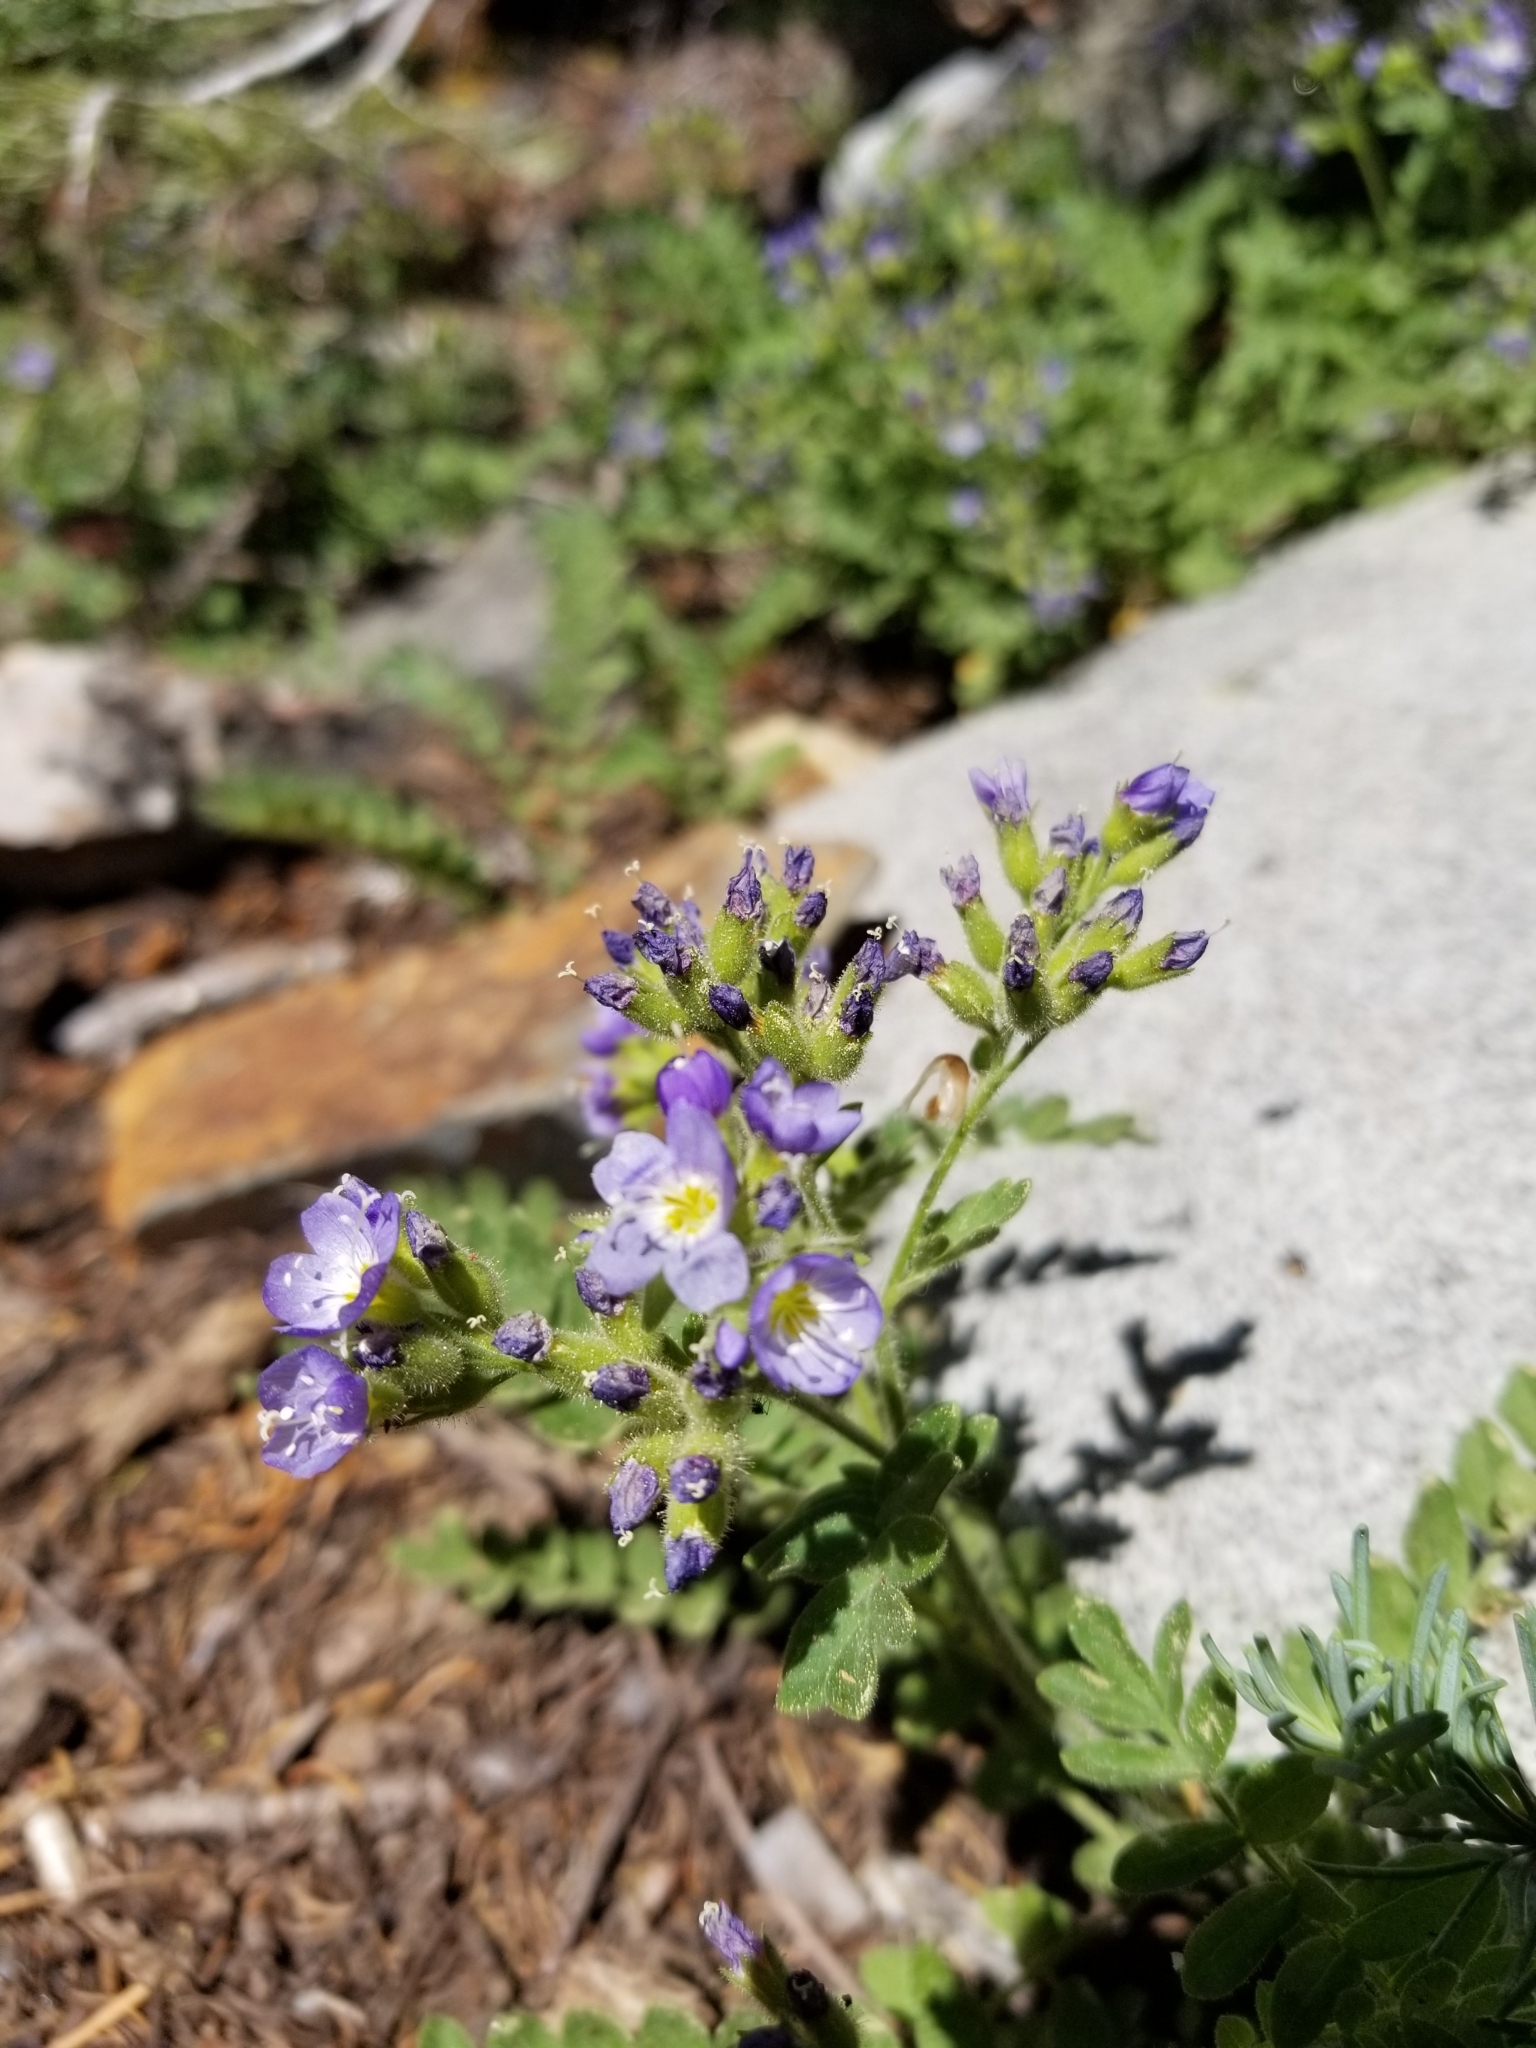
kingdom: Plantae
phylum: Tracheophyta
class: Magnoliopsida
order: Ericales
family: Polemoniaceae
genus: Polemonium
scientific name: Polemonium californicum
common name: California jacob's ladder
